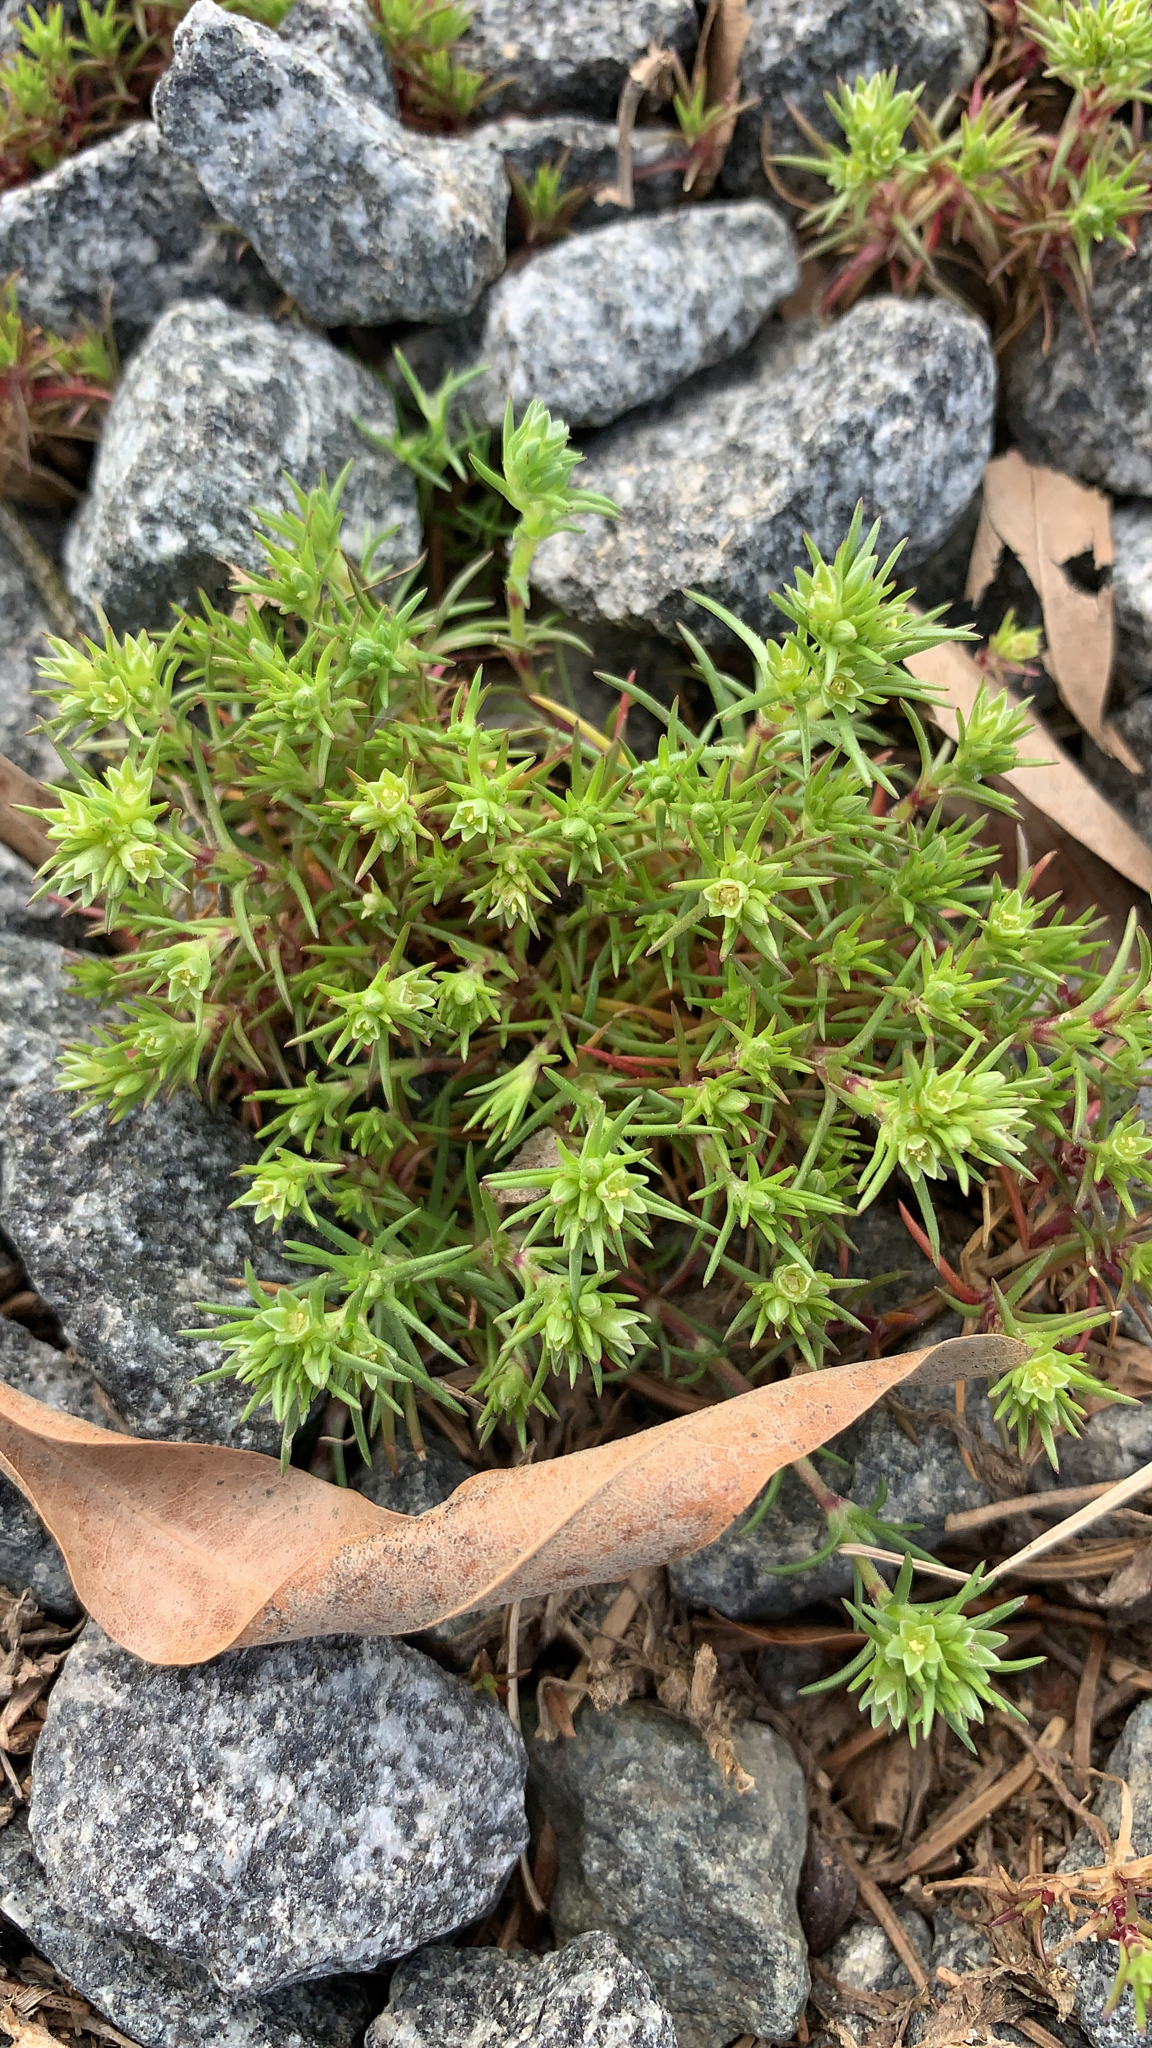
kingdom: Plantae
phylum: Tracheophyta
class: Magnoliopsida
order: Caryophyllales
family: Caryophyllaceae
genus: Scleranthus
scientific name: Scleranthus annuus
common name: Annual knawel
